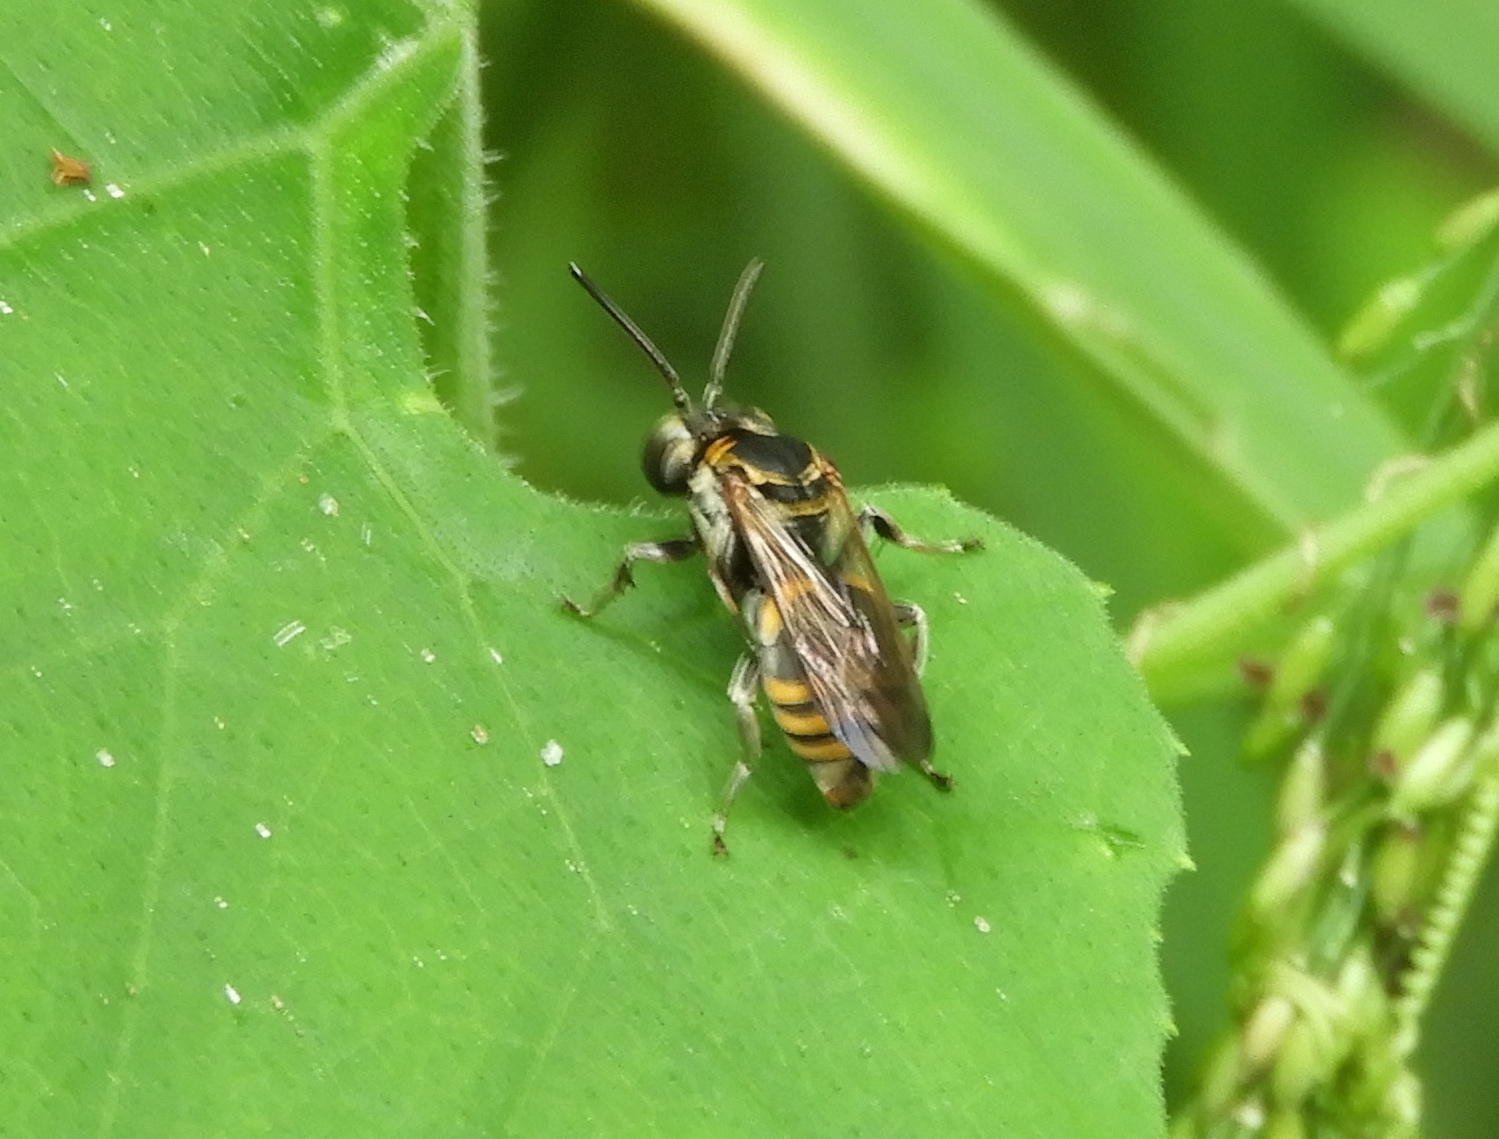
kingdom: Animalia
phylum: Arthropoda
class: Insecta
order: Hymenoptera
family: Apidae
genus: Triepeolus
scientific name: Triepeolus
